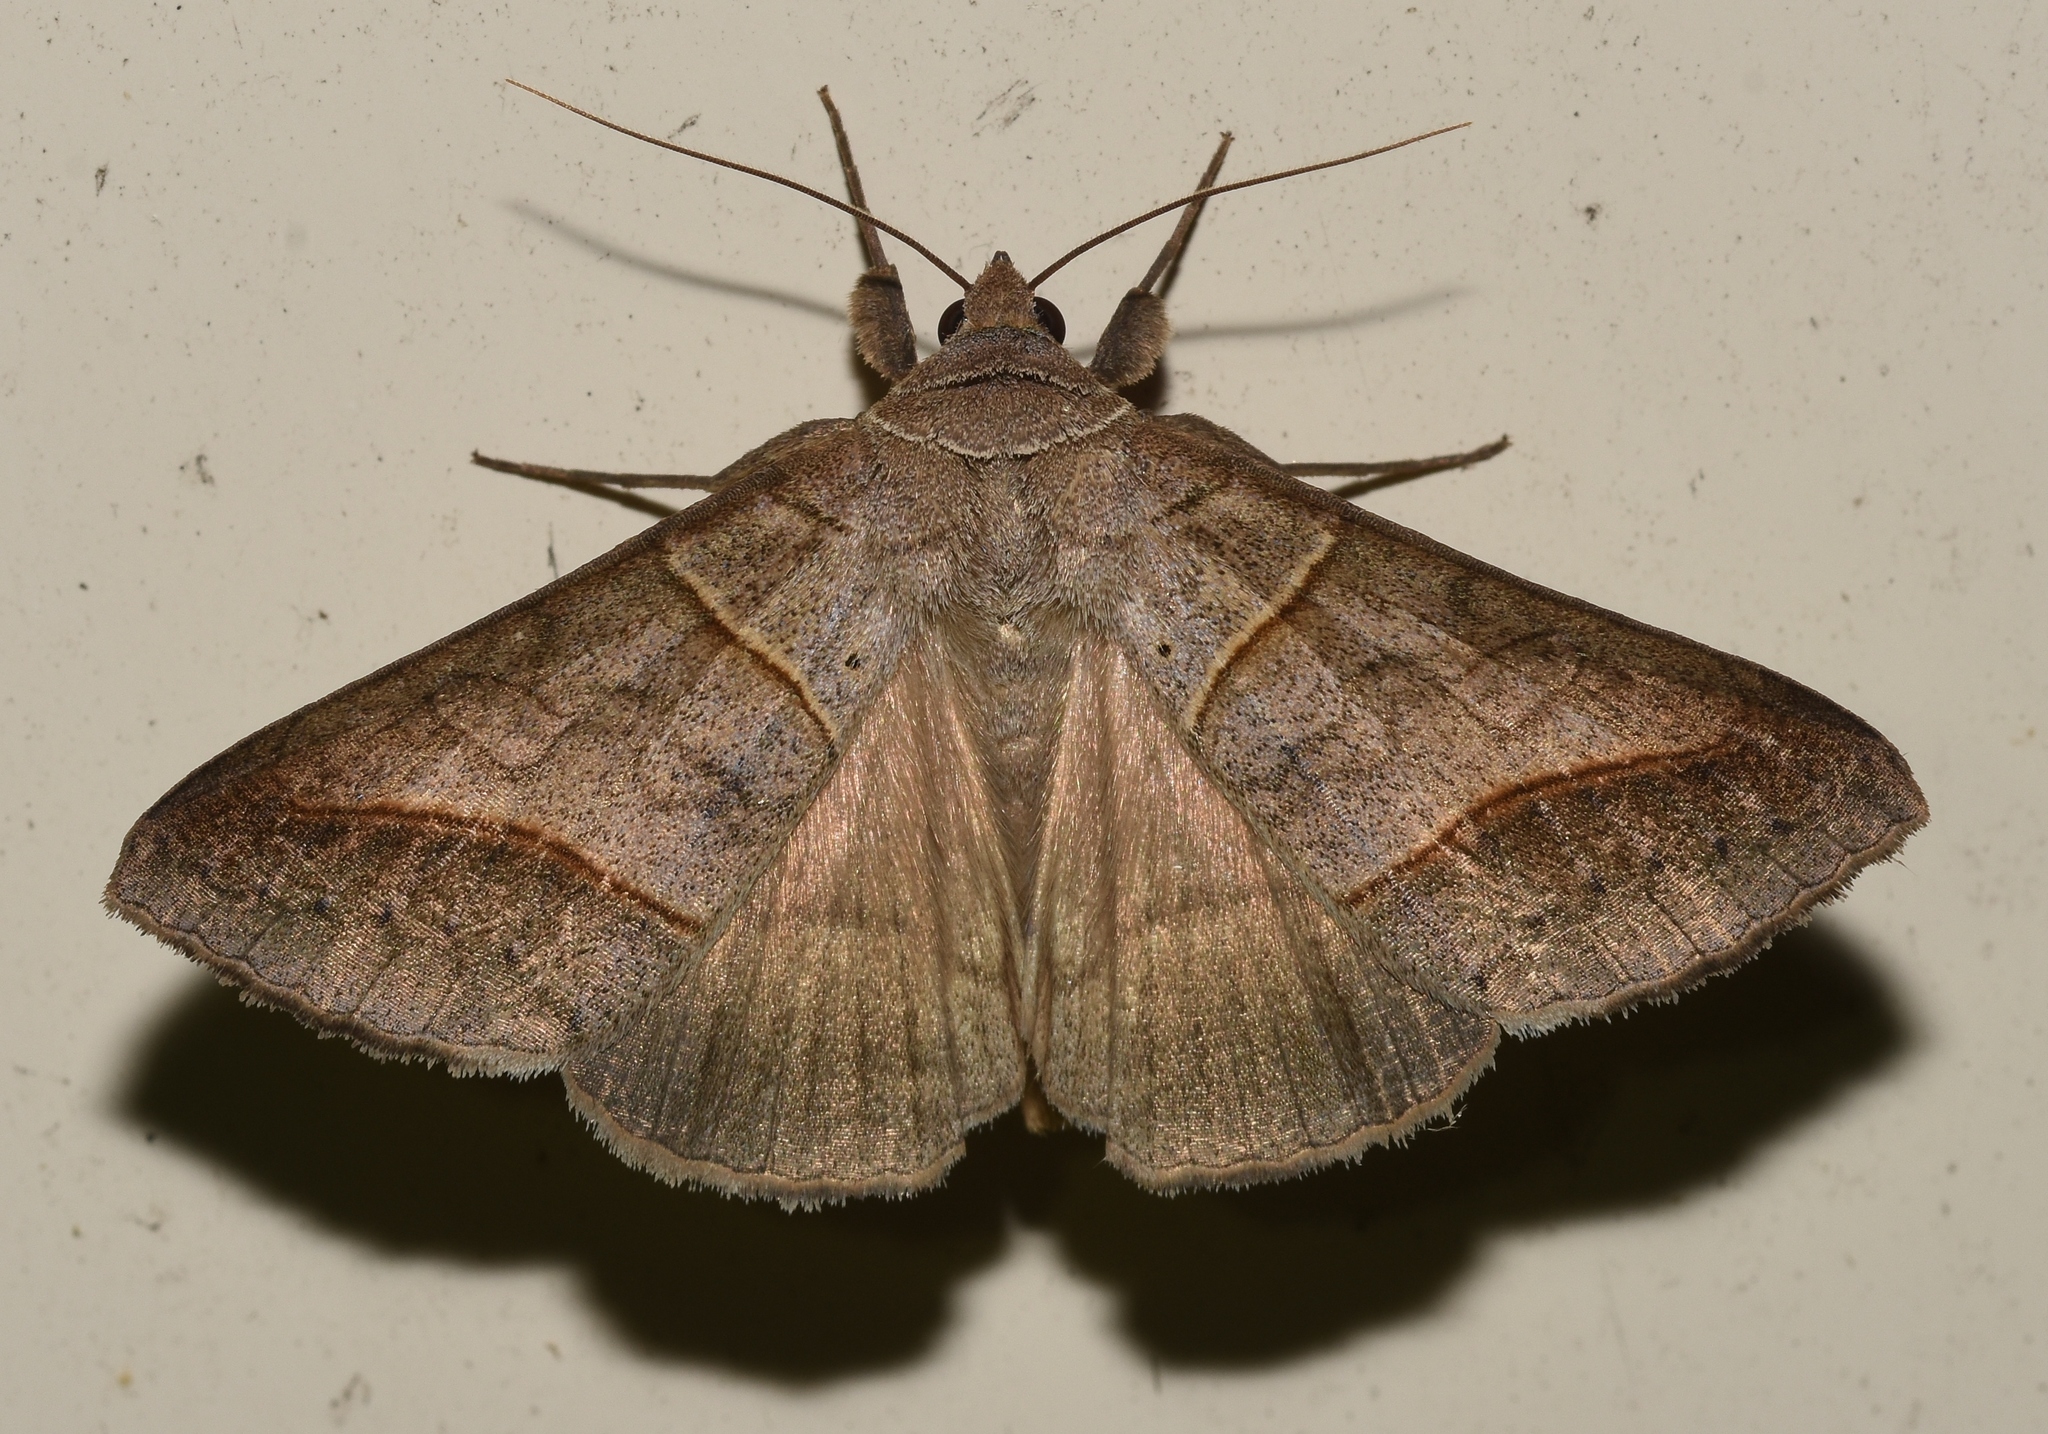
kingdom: Animalia
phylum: Arthropoda
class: Insecta
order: Lepidoptera
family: Erebidae
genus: Mocis
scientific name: Mocis texana
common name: Texas mocis moth
